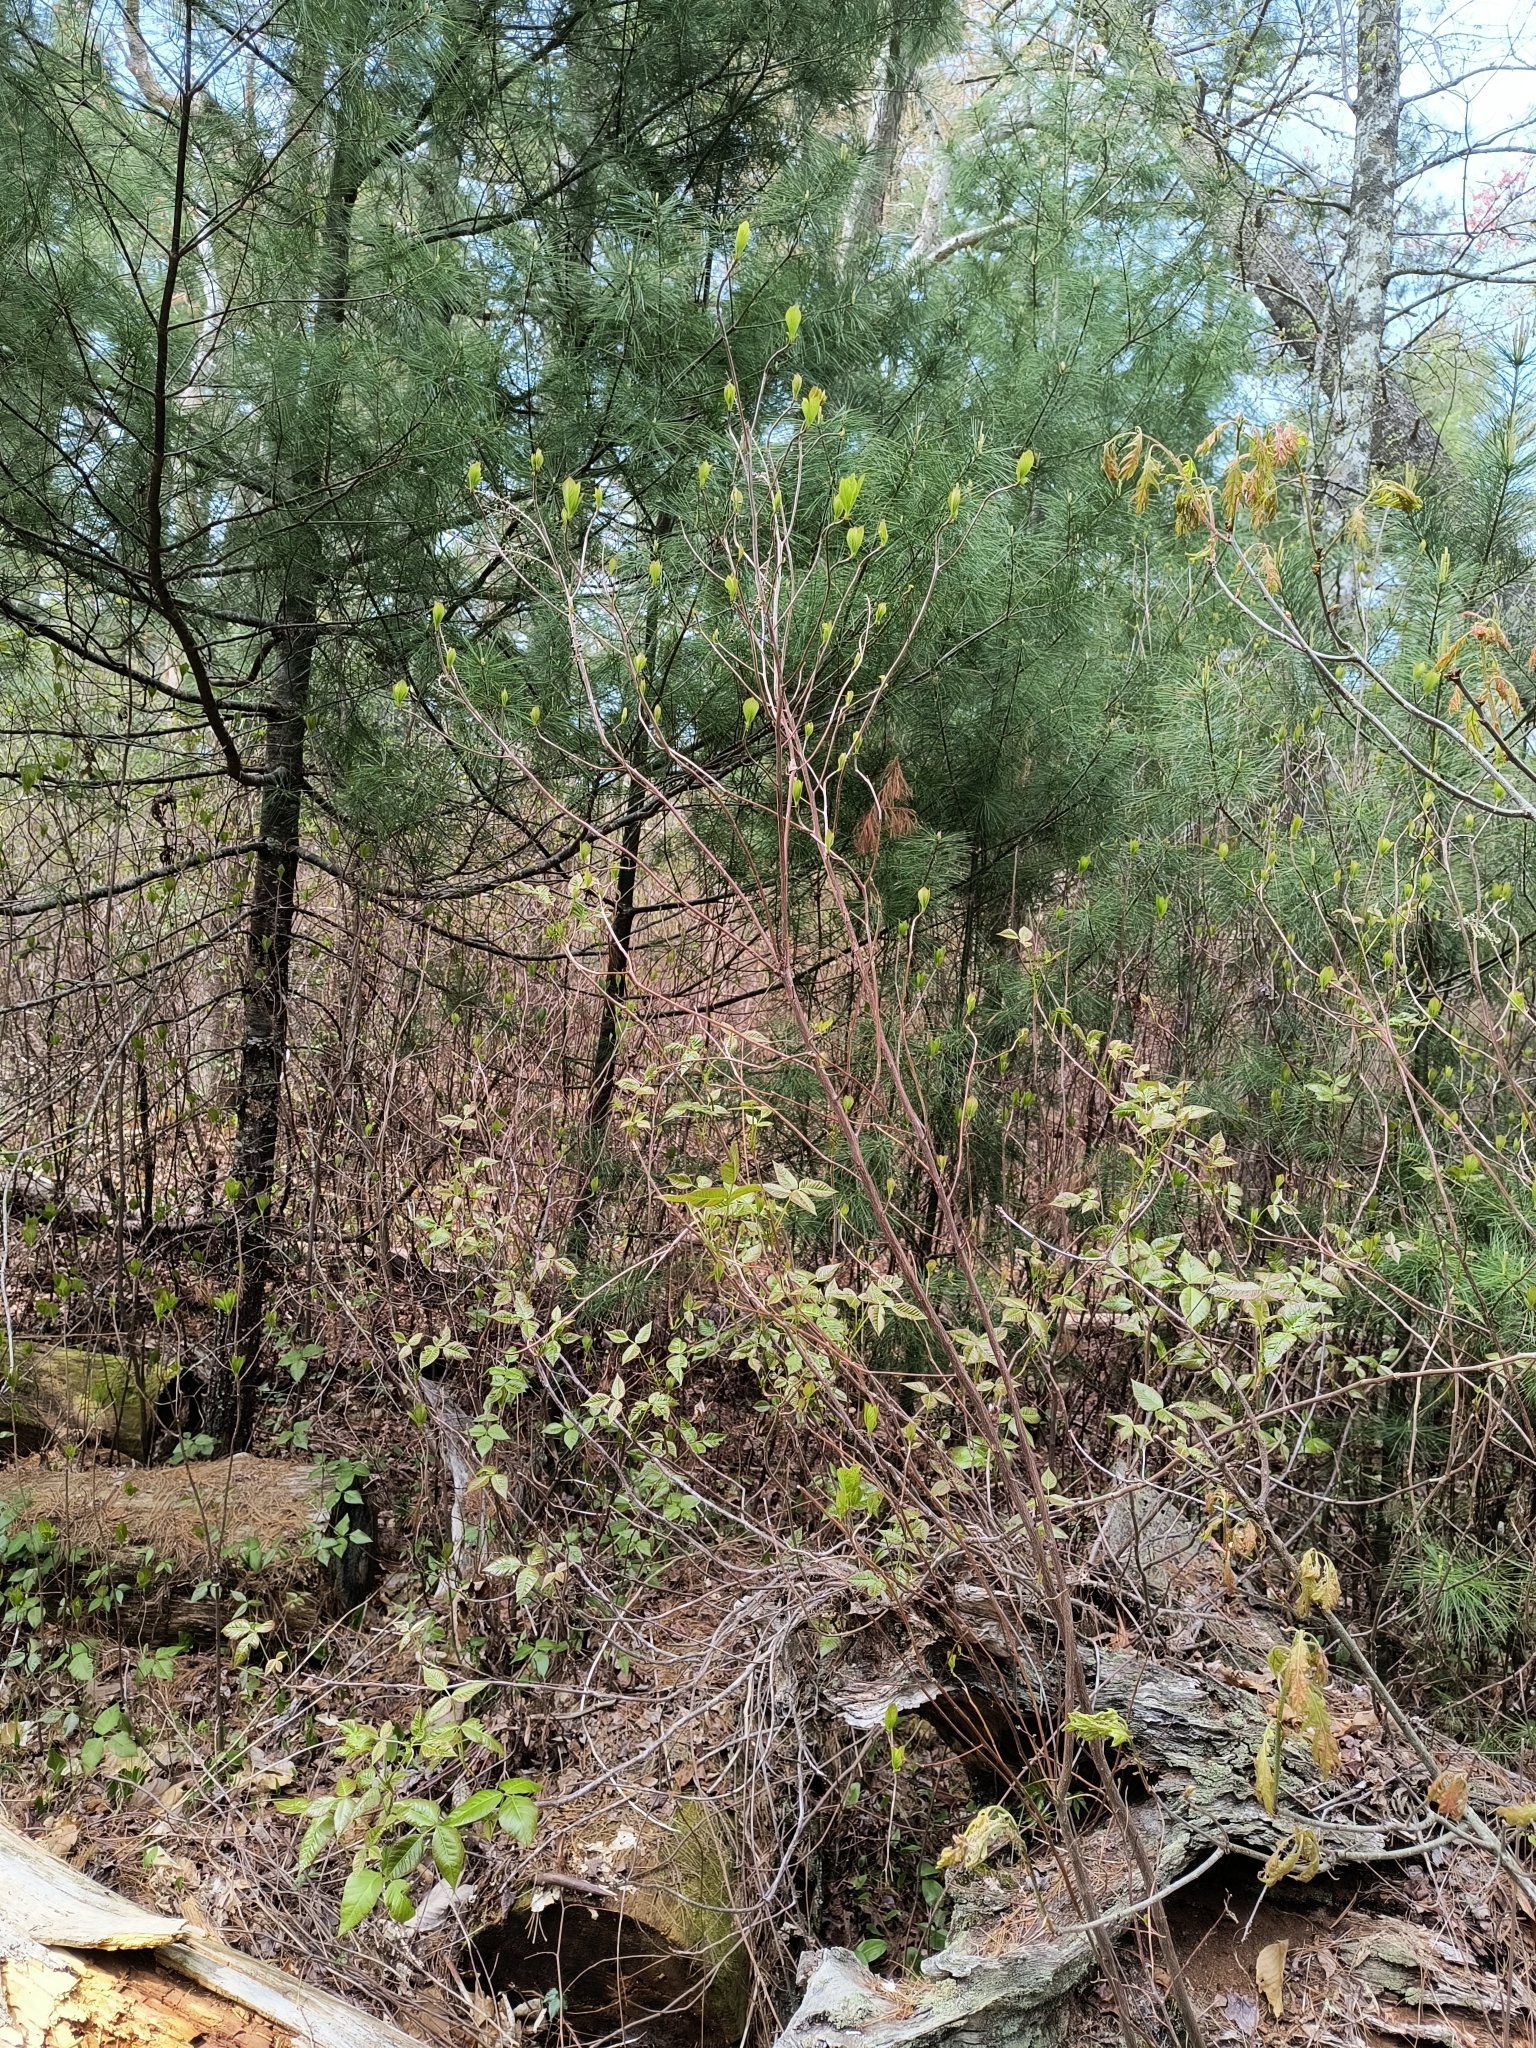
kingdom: Plantae
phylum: Tracheophyta
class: Magnoliopsida
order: Sapindales
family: Anacardiaceae
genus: Toxicodendron
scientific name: Toxicodendron radicans
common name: Poison ivy
